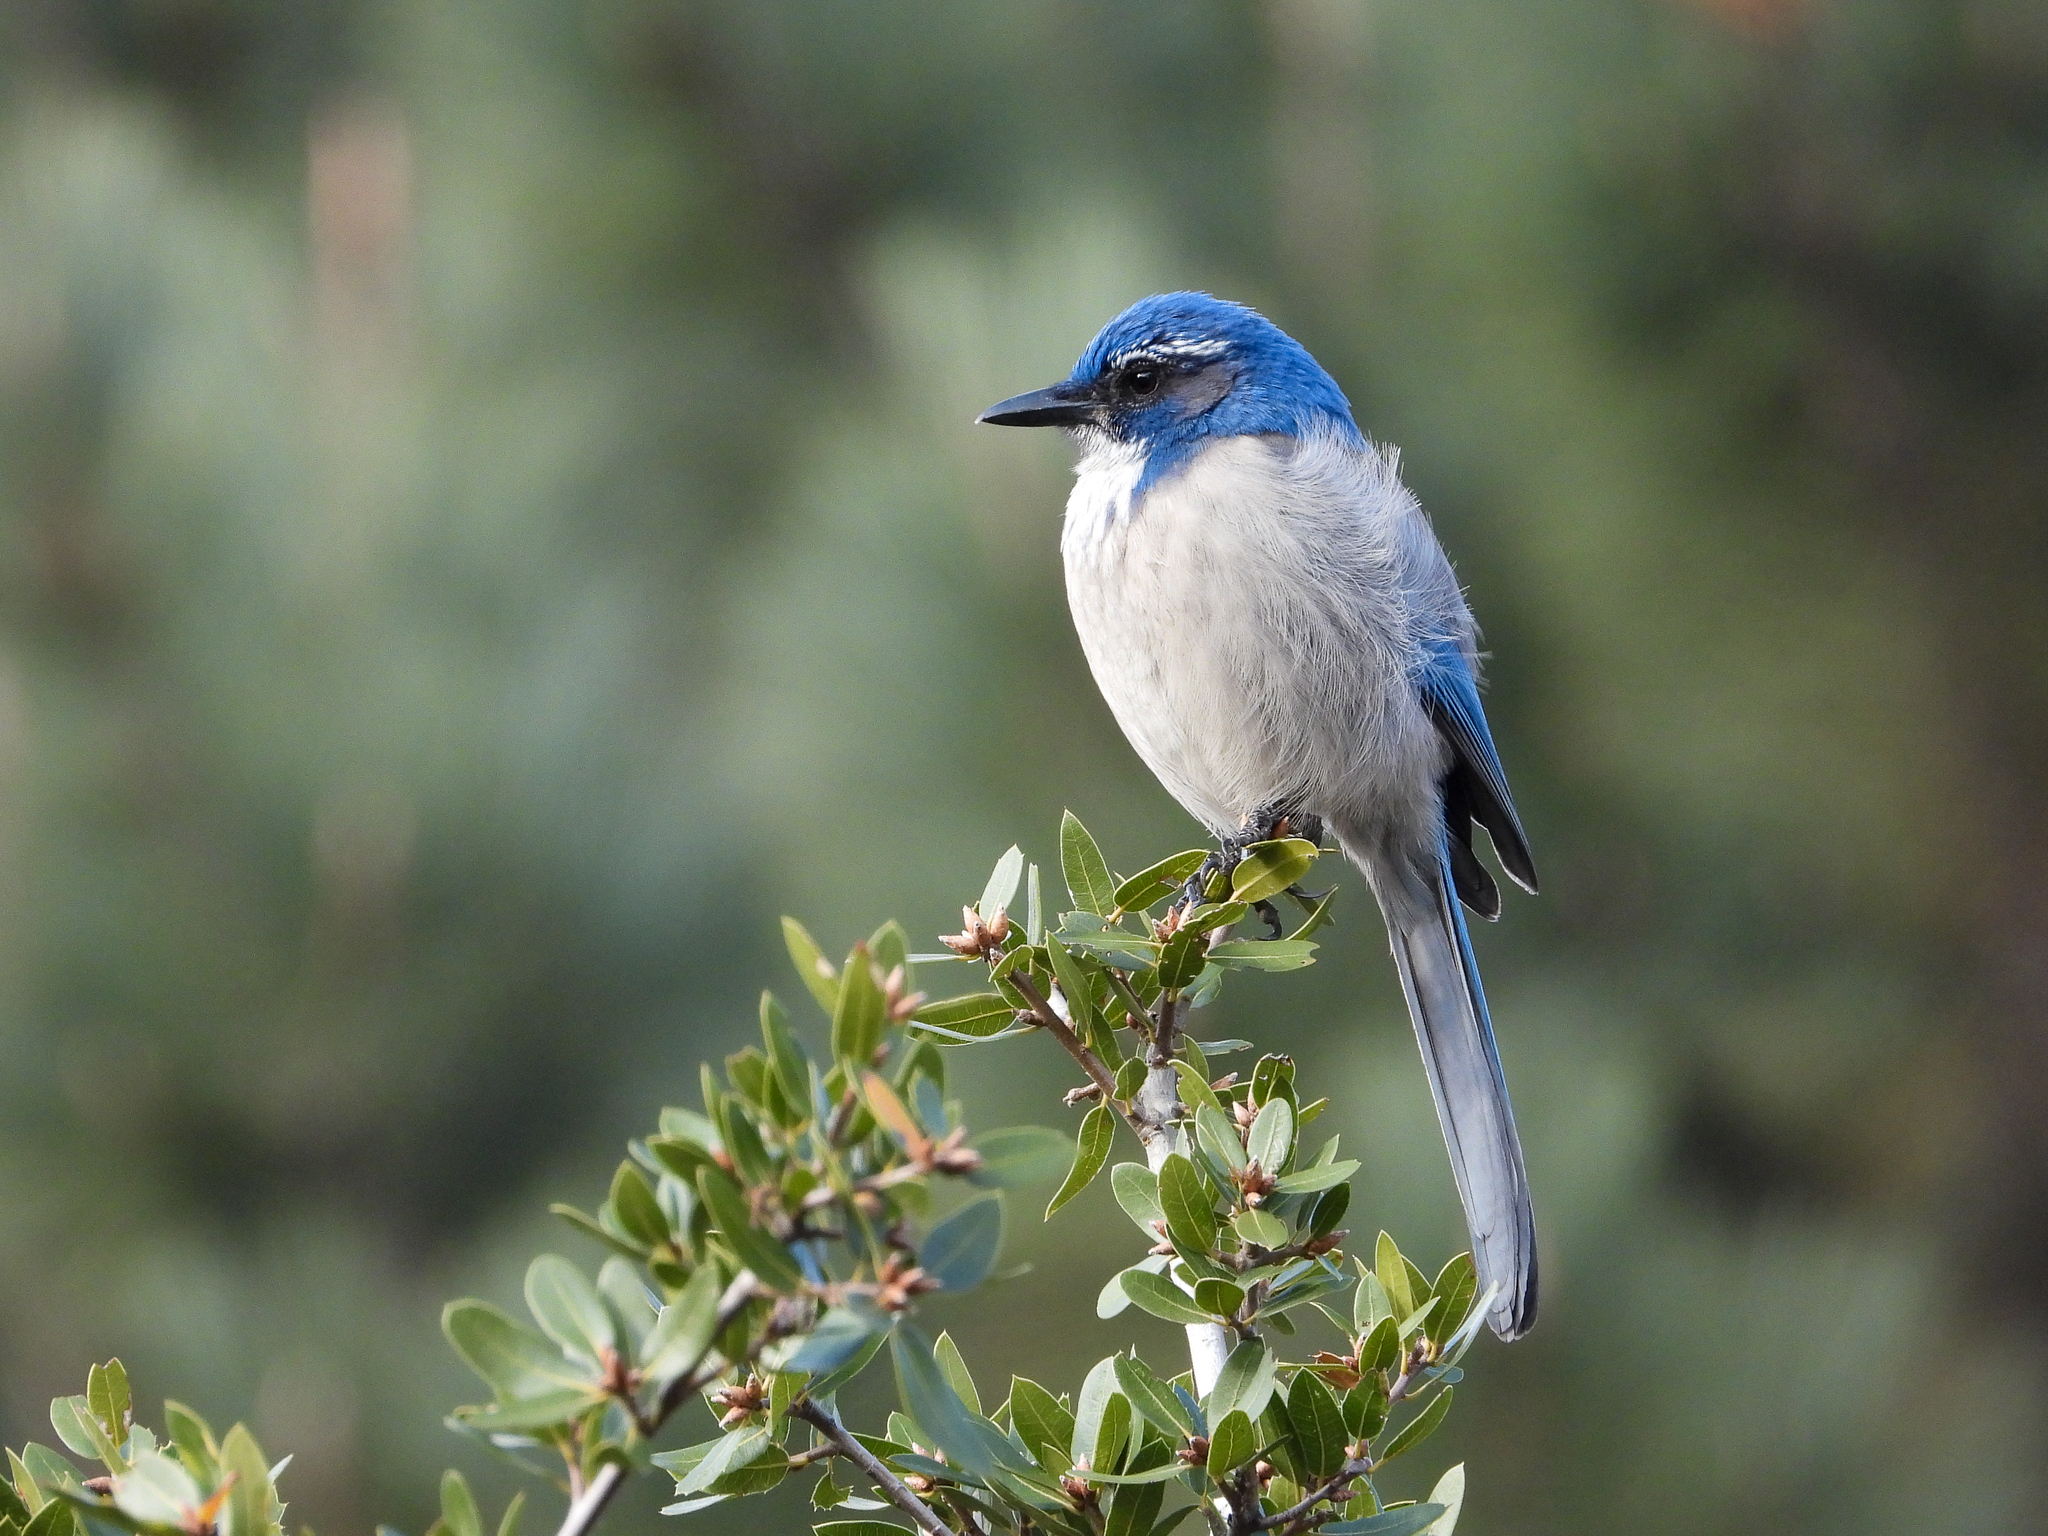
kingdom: Animalia
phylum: Chordata
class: Aves
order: Passeriformes
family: Corvidae
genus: Aphelocoma
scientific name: Aphelocoma californica
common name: California scrub-jay
